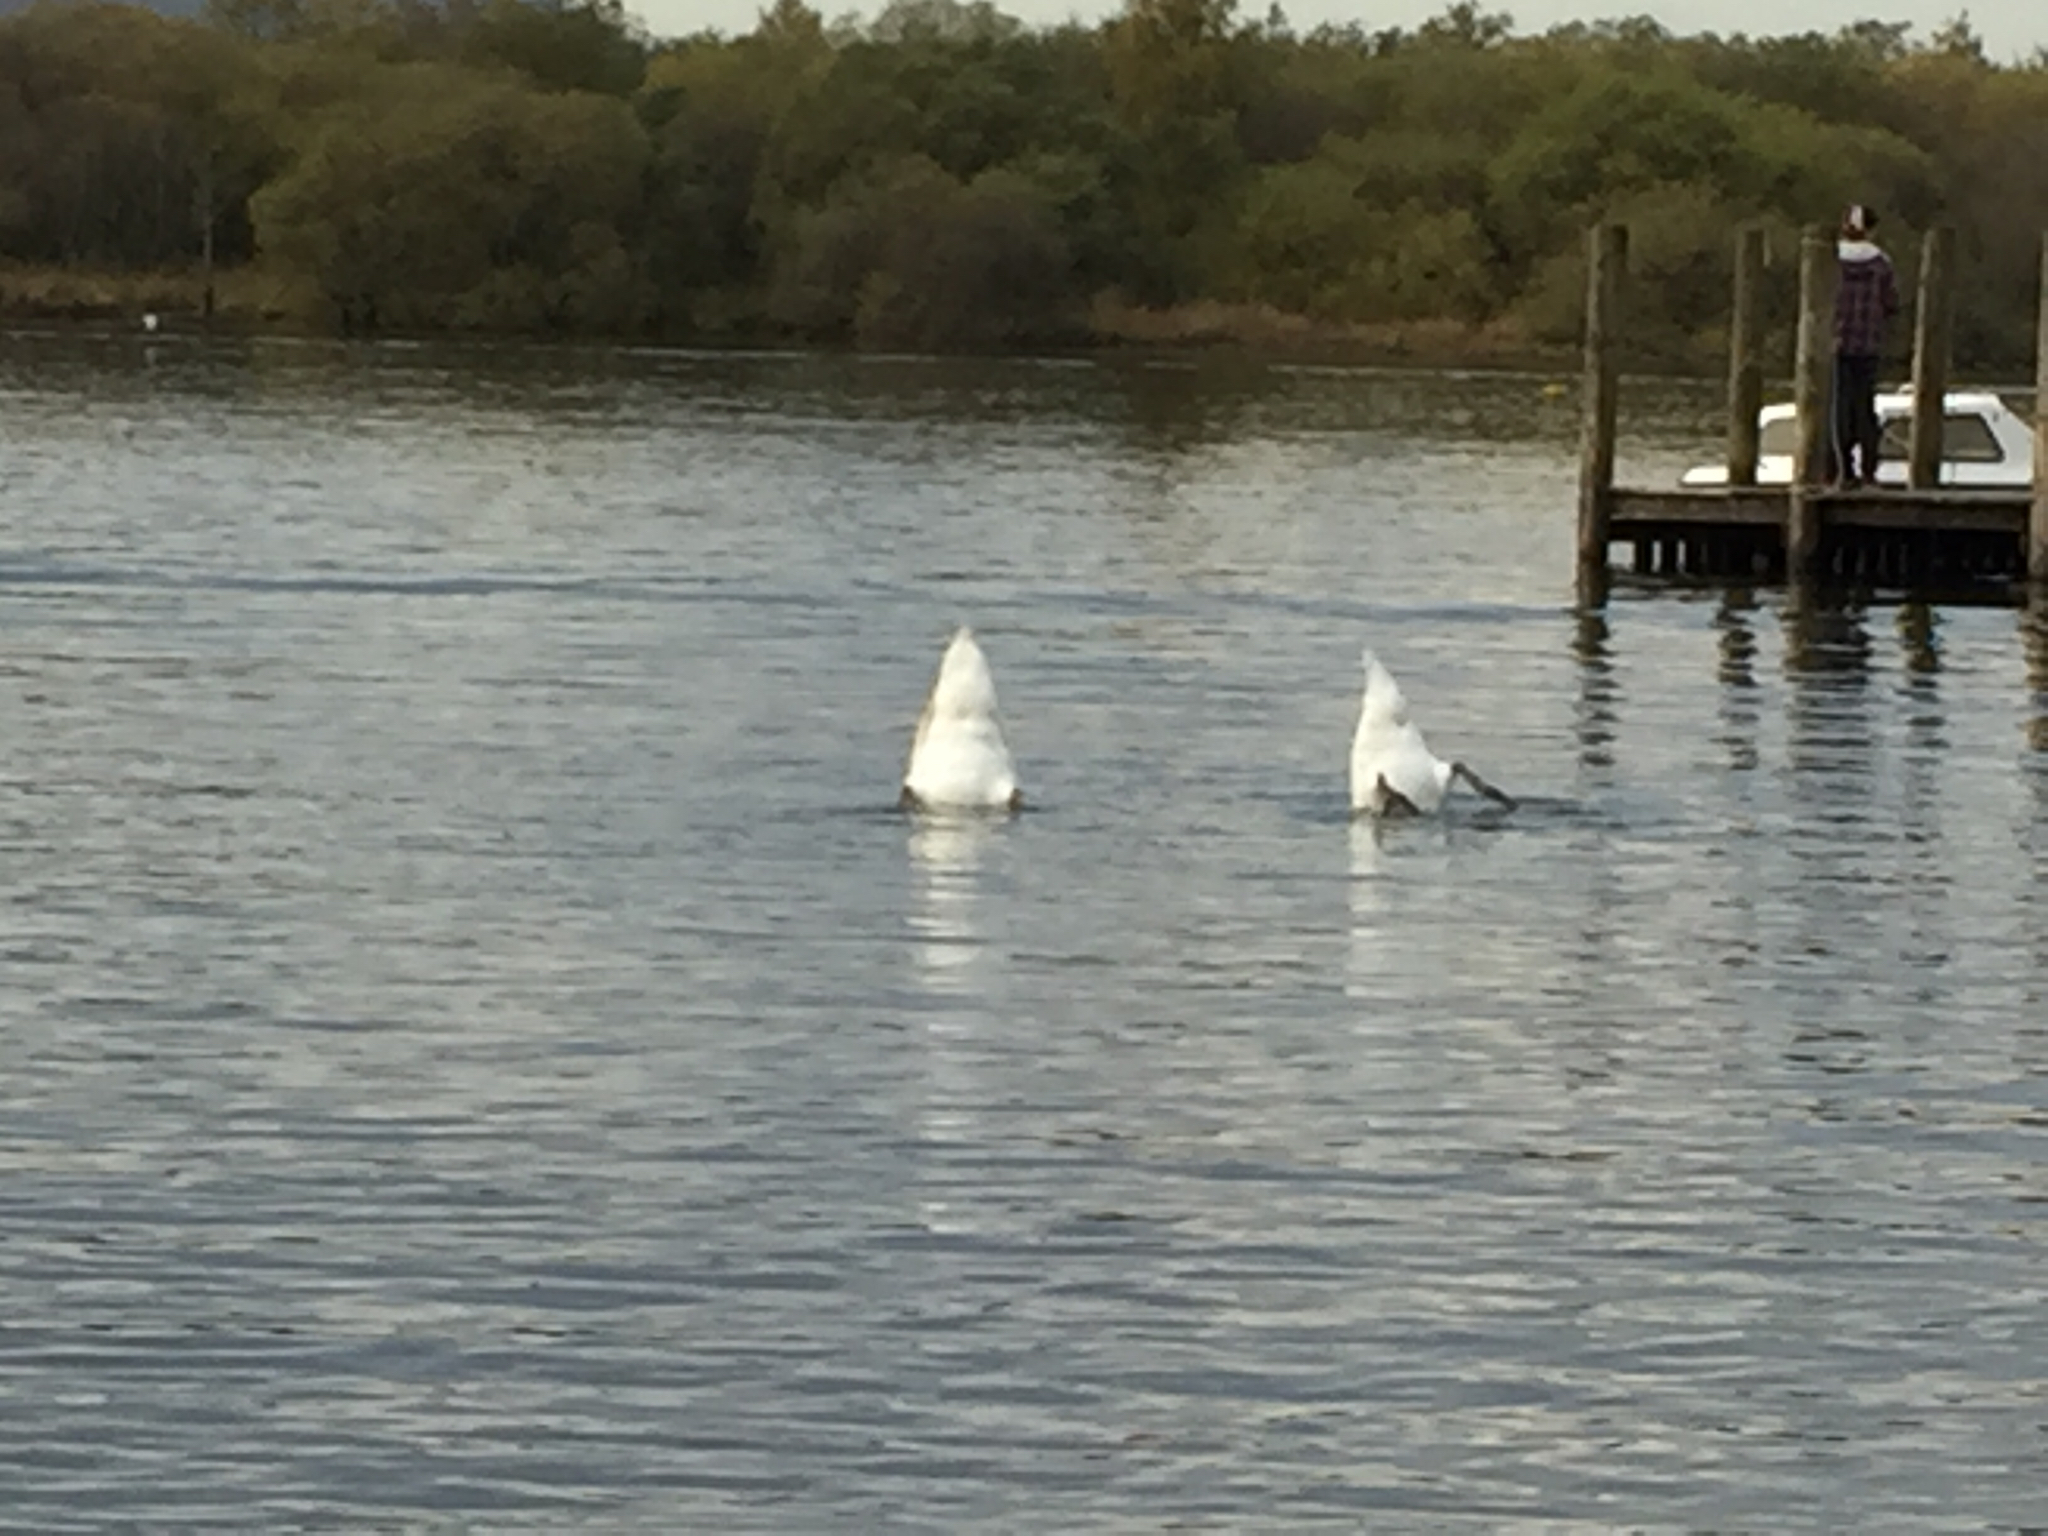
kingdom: Animalia
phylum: Chordata
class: Aves
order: Anseriformes
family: Anatidae
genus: Cygnus
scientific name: Cygnus olor
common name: Mute swan
